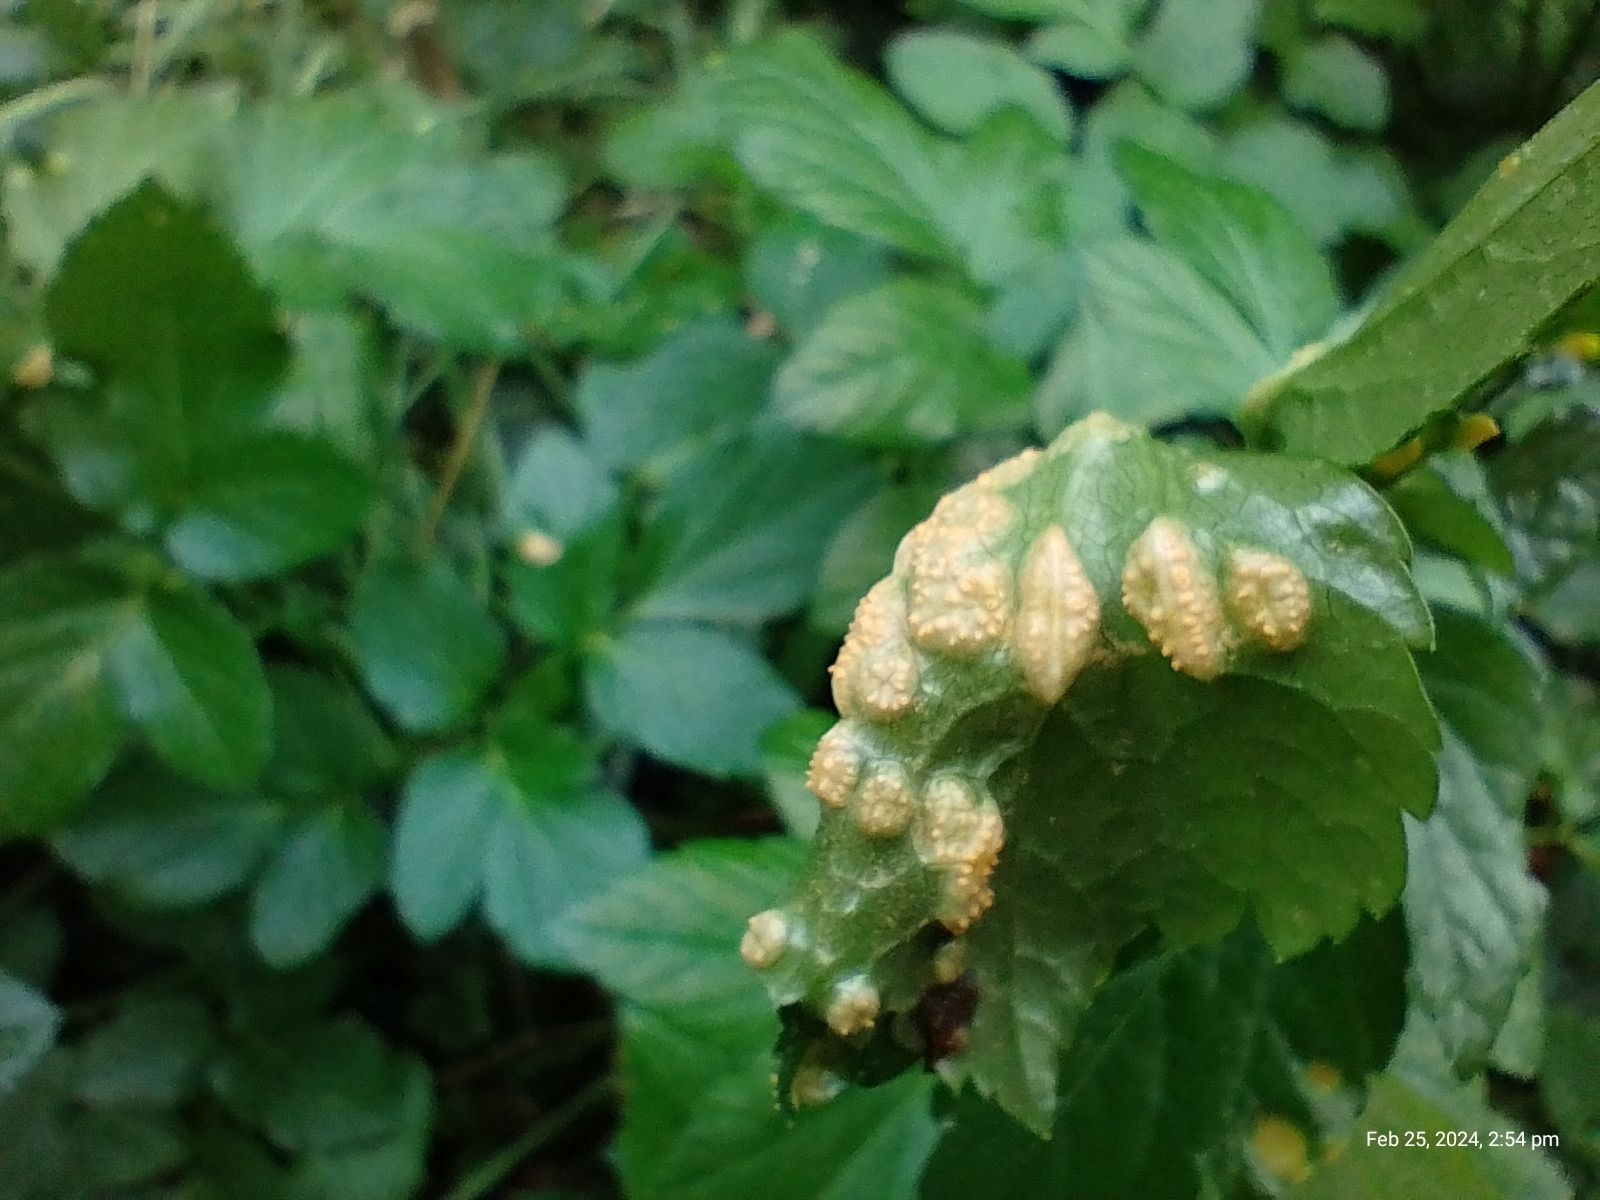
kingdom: Fungi
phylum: Basidiomycota
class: Pucciniomycetes
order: Pucciniales
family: Pucciniaceae
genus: Puccinia
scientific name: Puccinia smyrnii
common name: Alexanders rust
